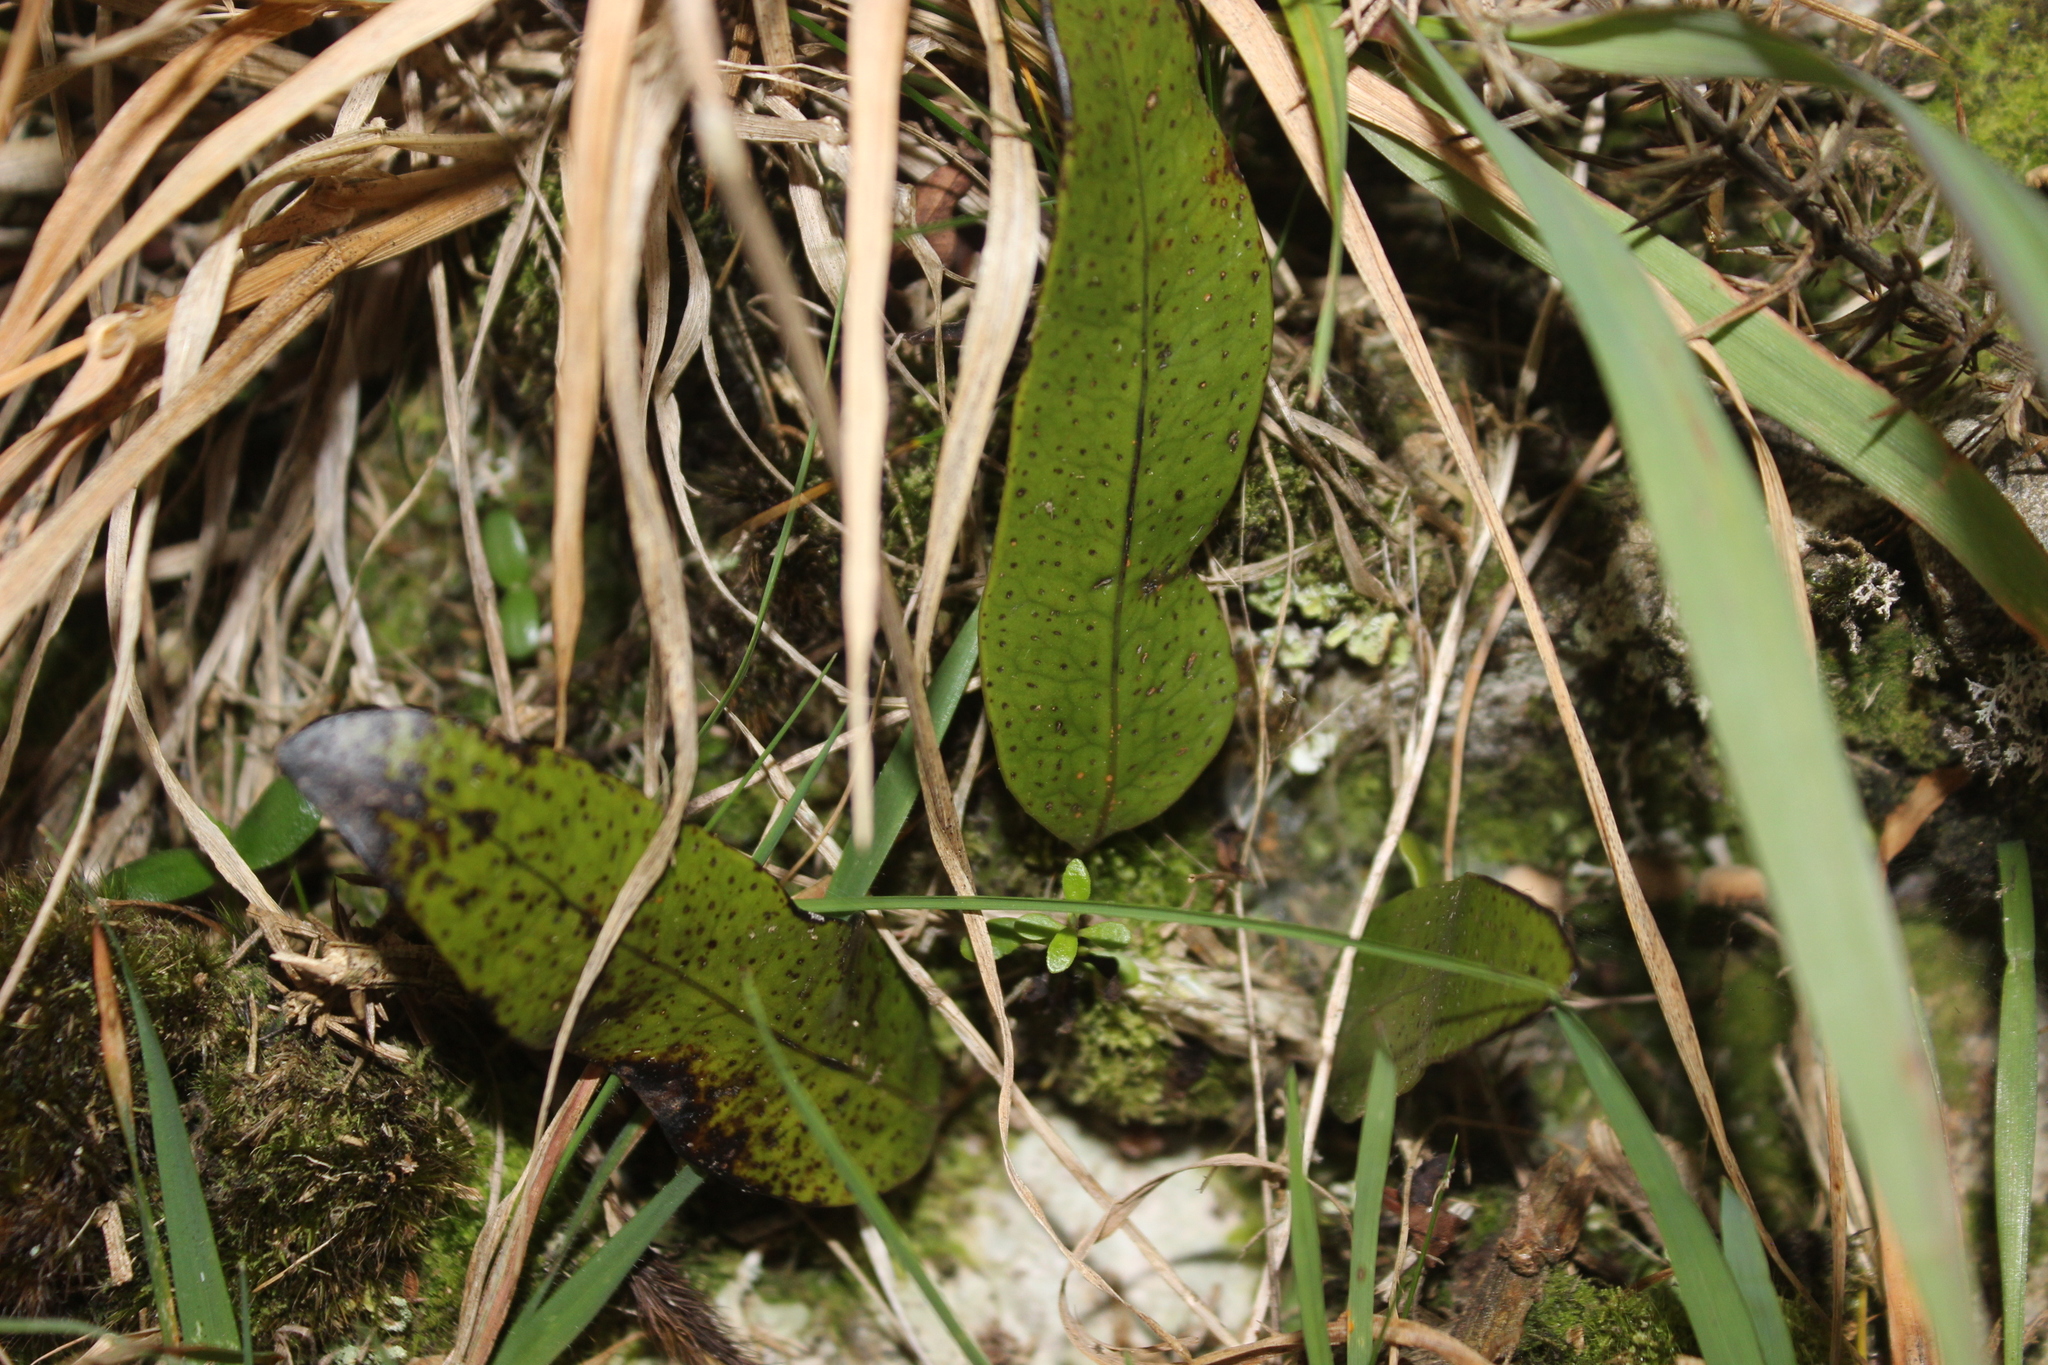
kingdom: Plantae
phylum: Tracheophyta
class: Polypodiopsida
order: Polypodiales
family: Polypodiaceae
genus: Lecanopteris
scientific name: Lecanopteris pustulata
